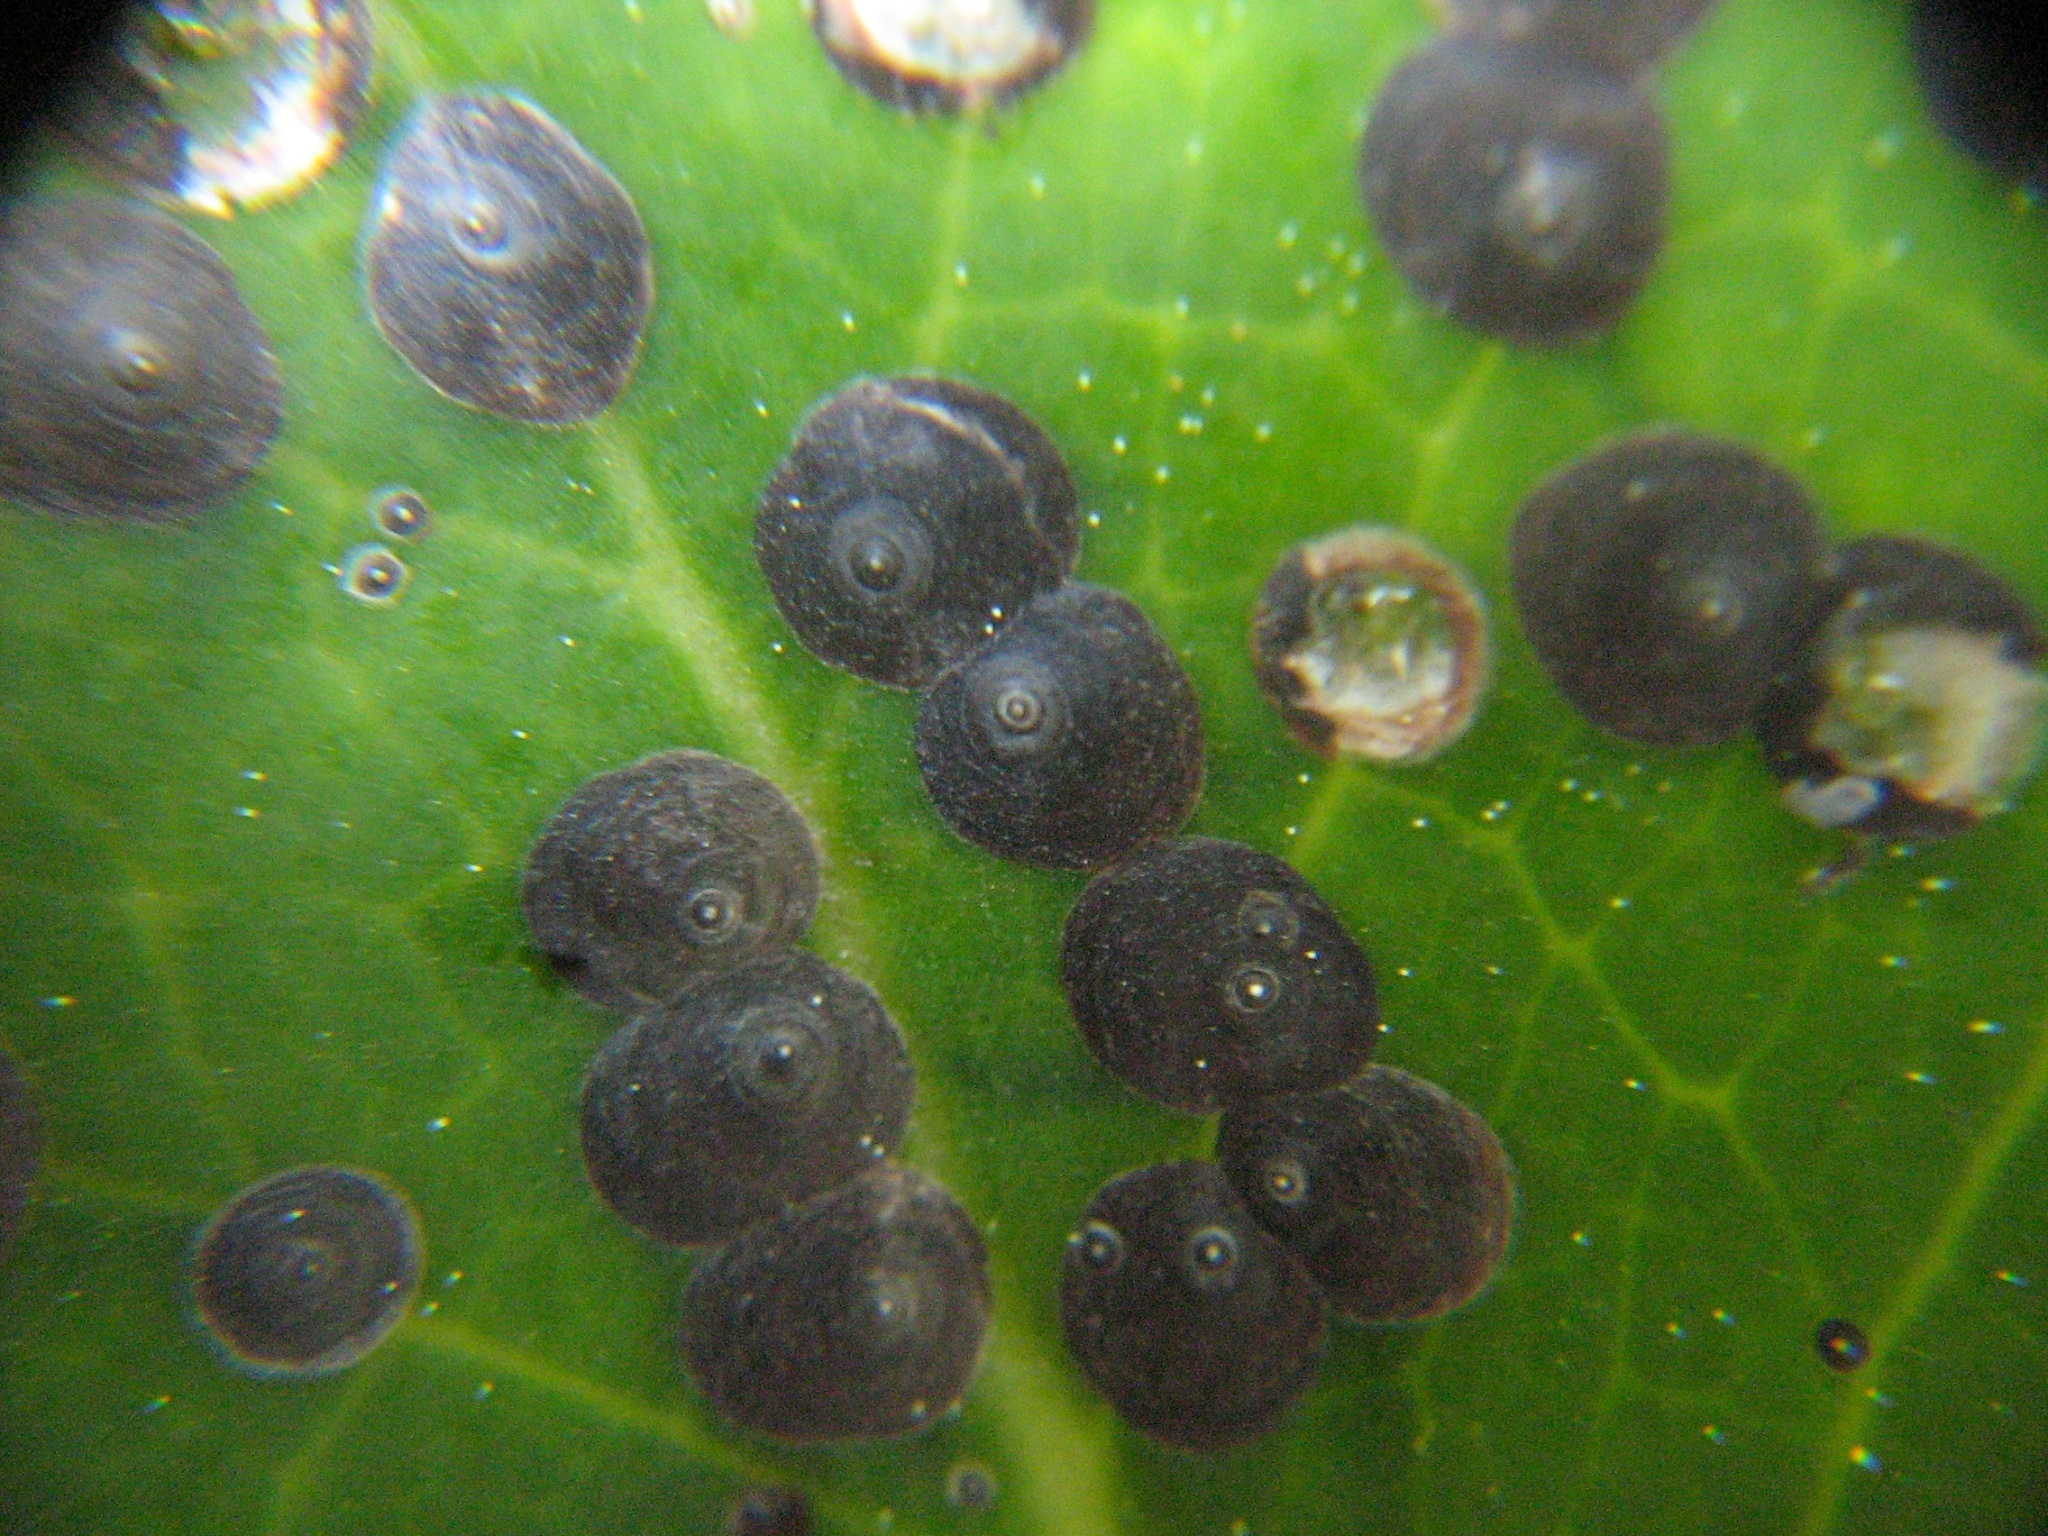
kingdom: Animalia
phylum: Arthropoda
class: Insecta
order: Hemiptera
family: Diaspididae
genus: Lindingaspis
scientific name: Lindingaspis rossi
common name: Araucaria black scale
